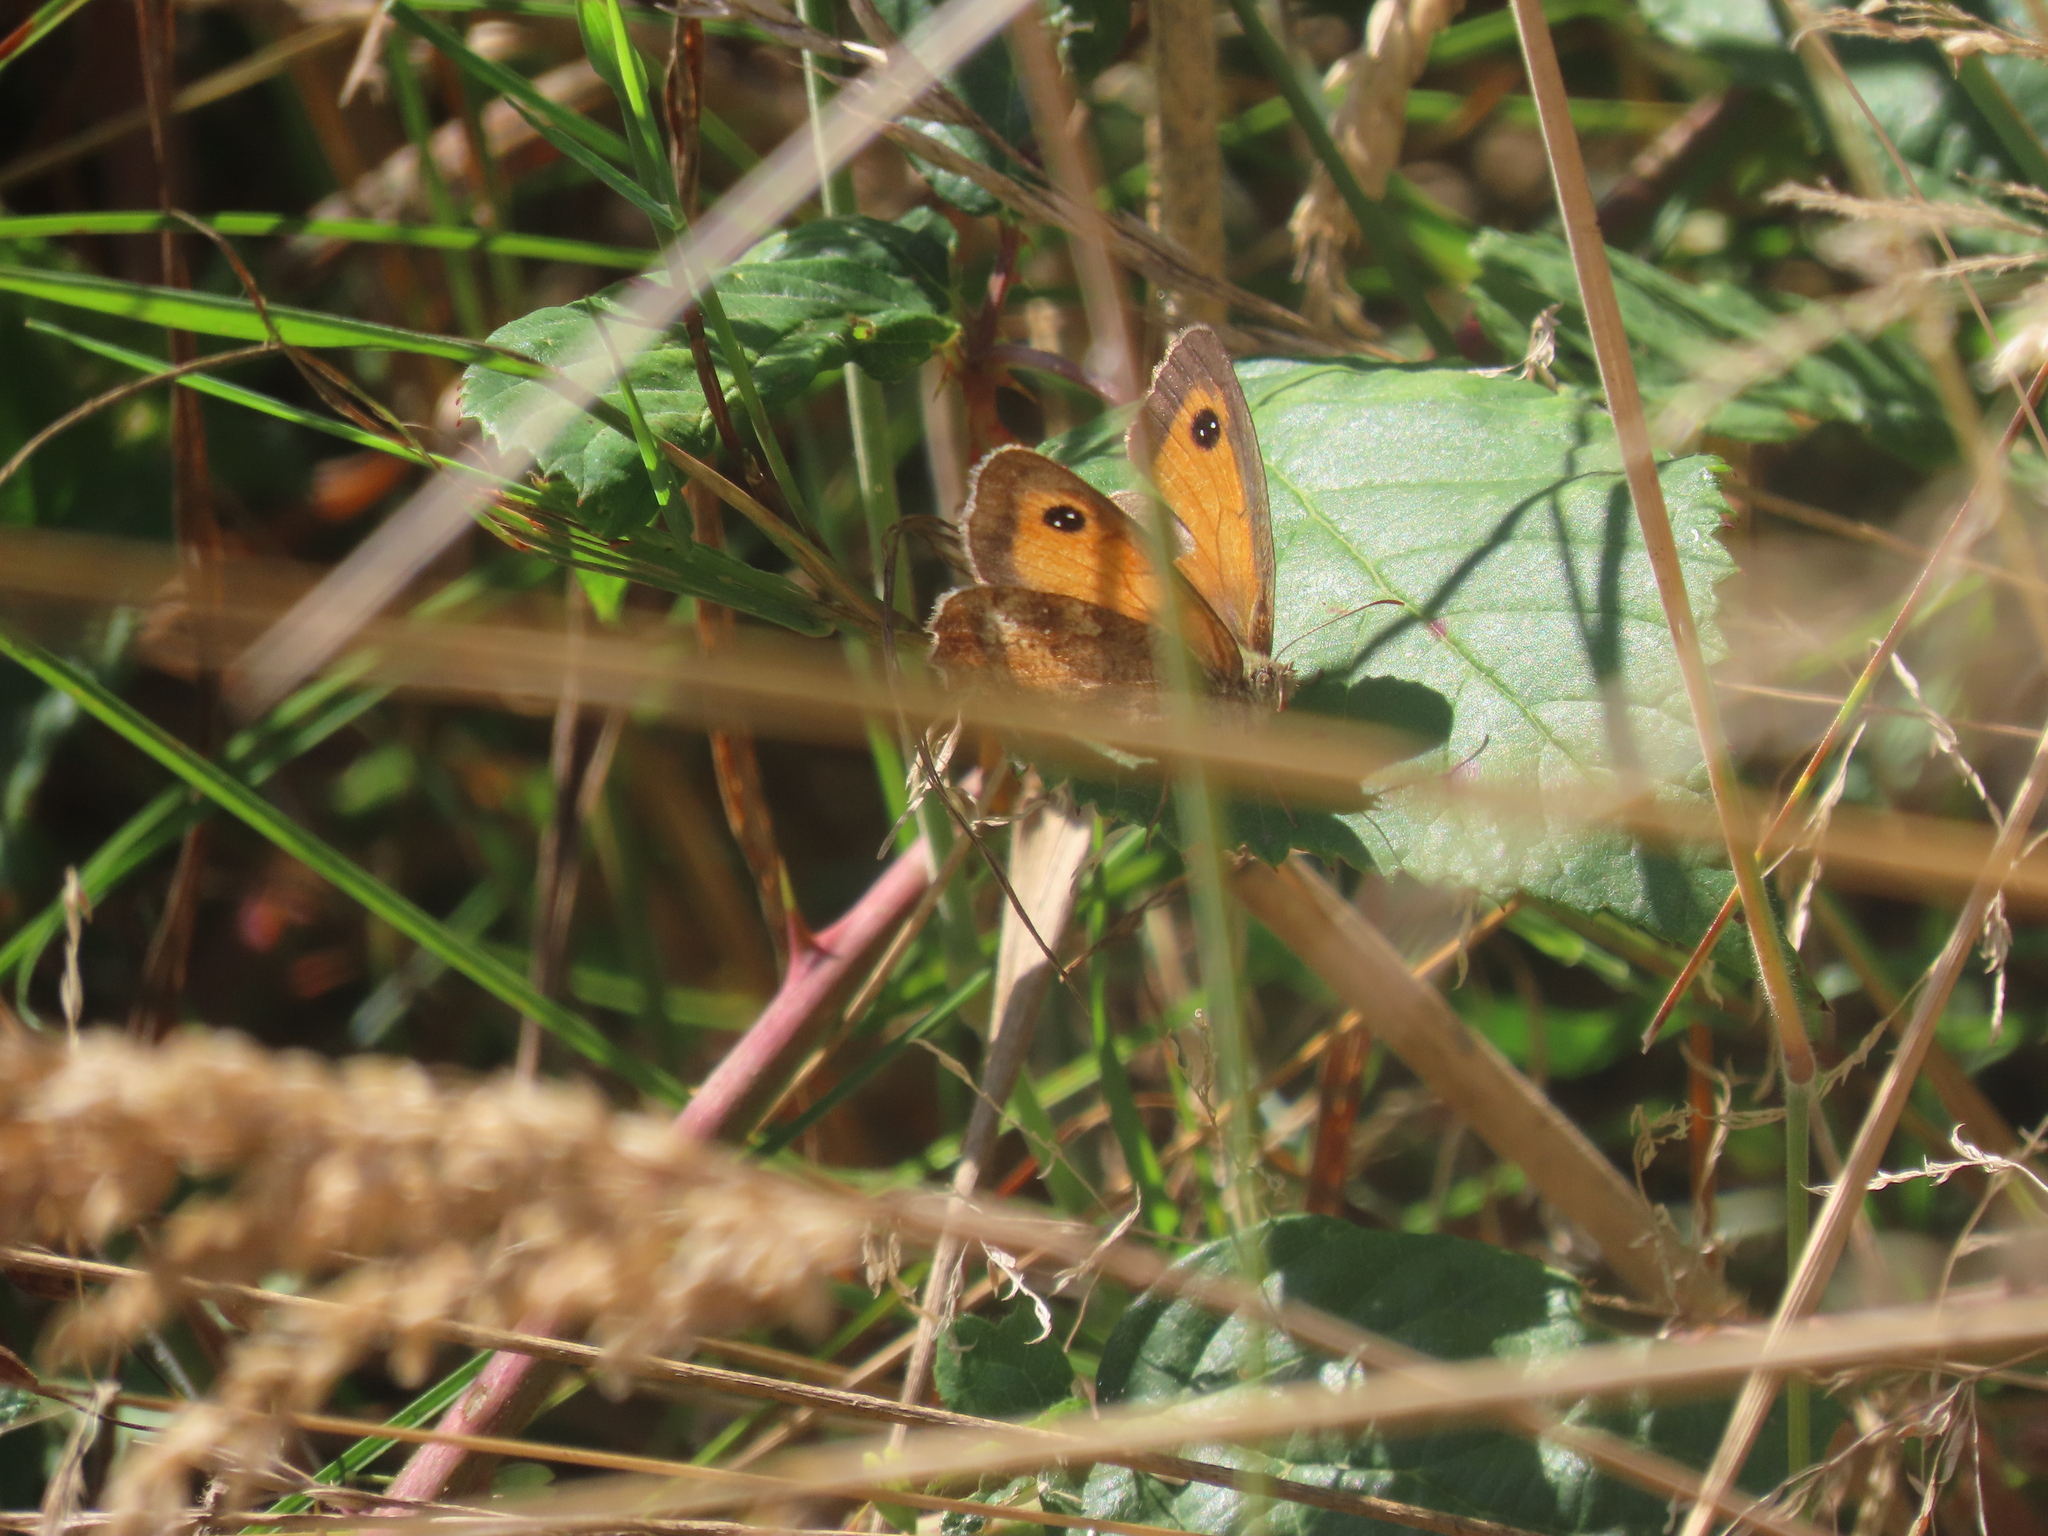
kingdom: Animalia
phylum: Arthropoda
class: Insecta
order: Lepidoptera
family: Nymphalidae
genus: Pyronia
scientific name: Pyronia tithonus
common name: Gatekeeper
